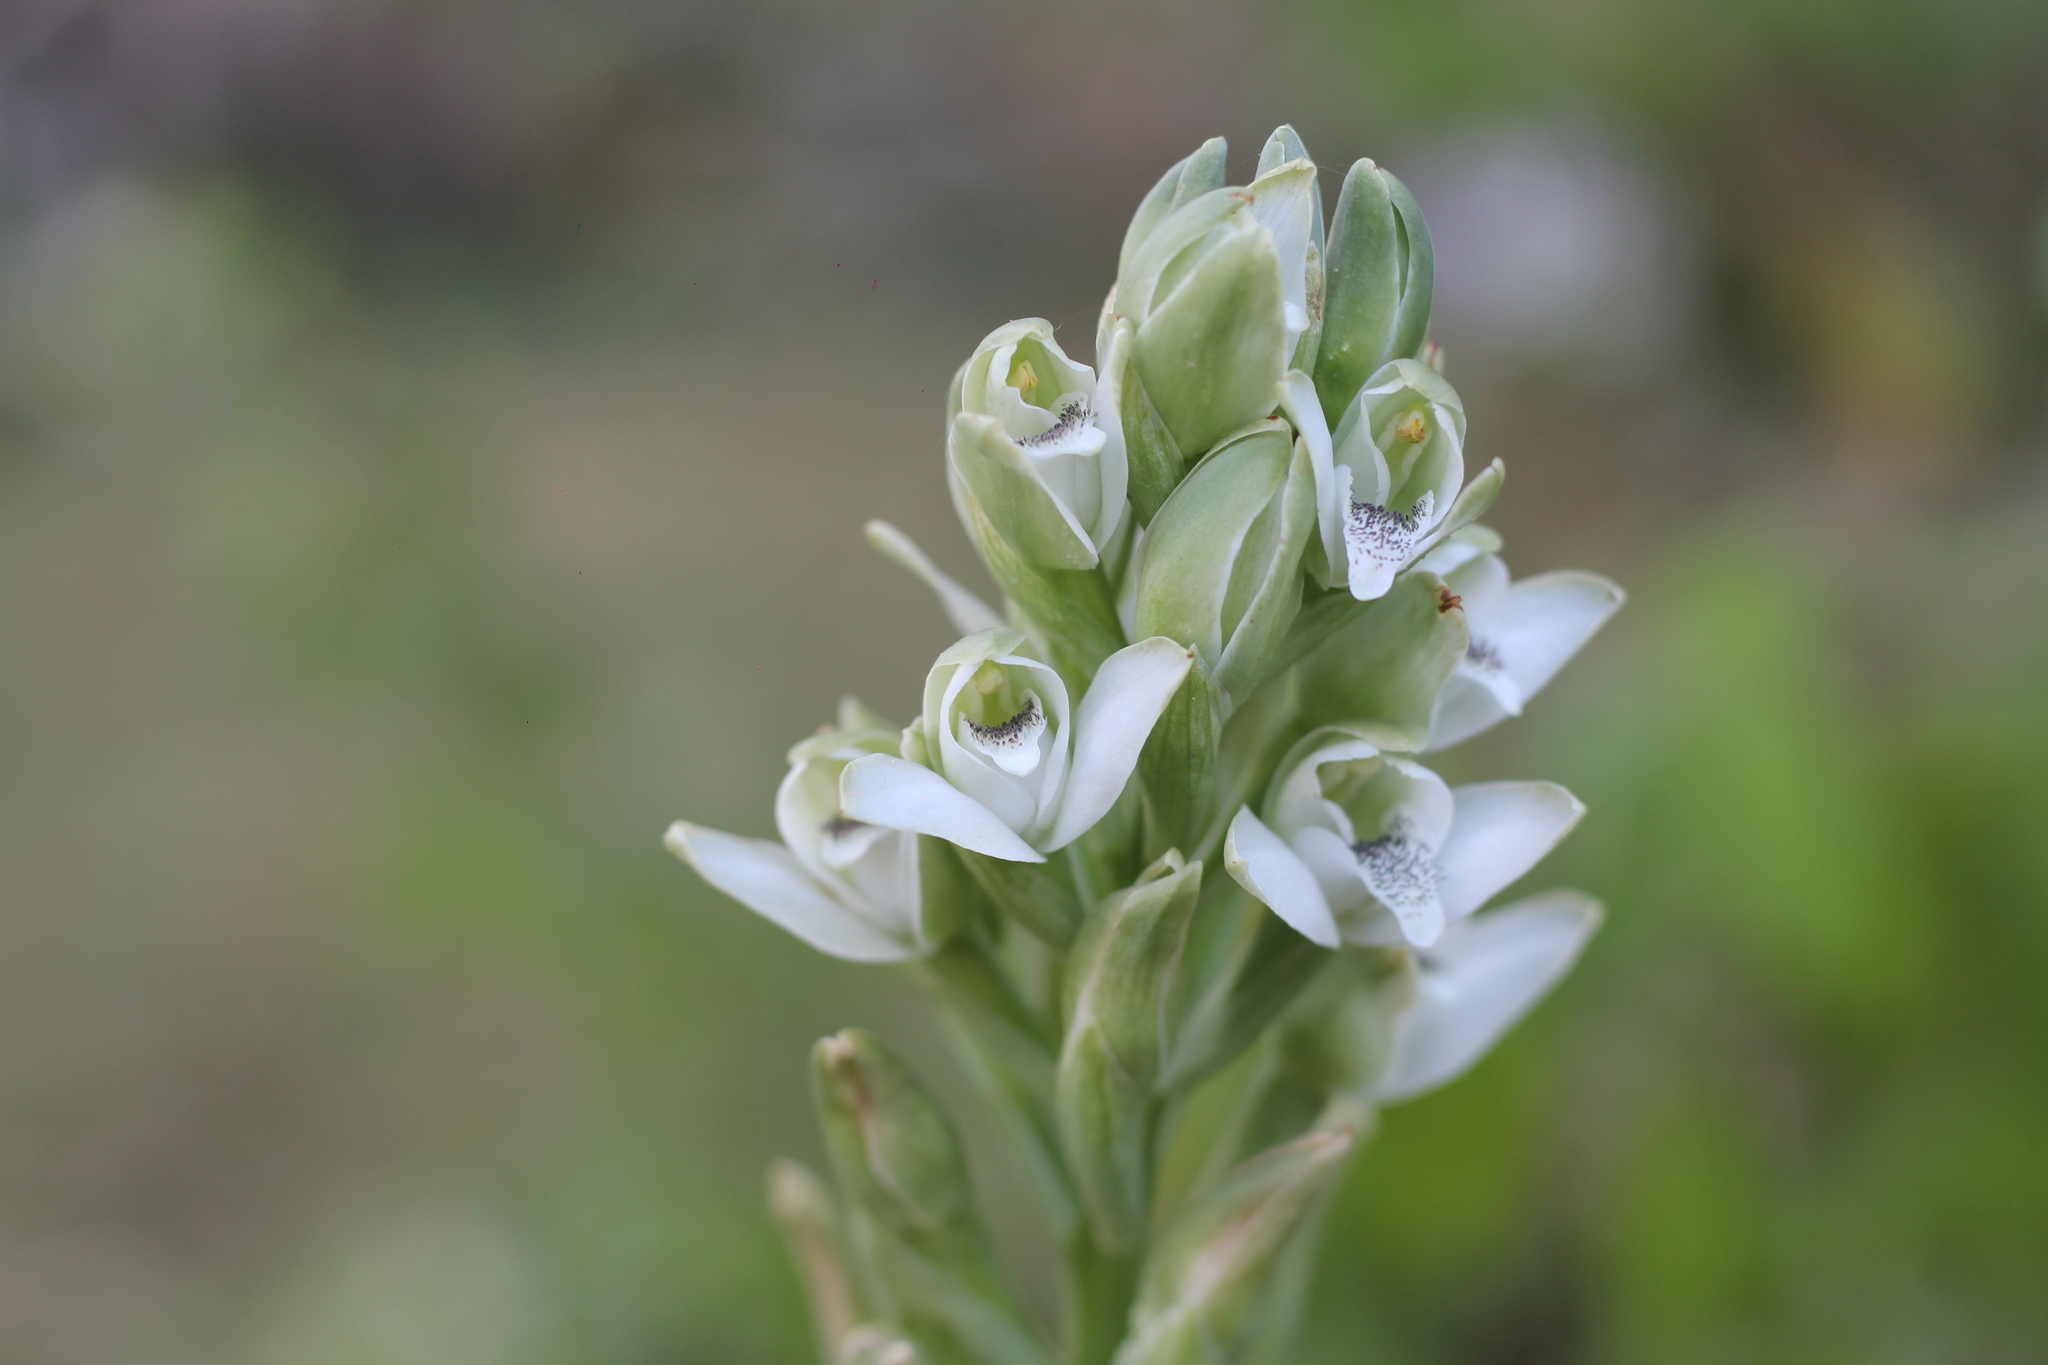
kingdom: Plantae
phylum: Tracheophyta
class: Liliopsida
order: Asparagales
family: Orchidaceae
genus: Chloraea
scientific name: Chloraea membranacea
